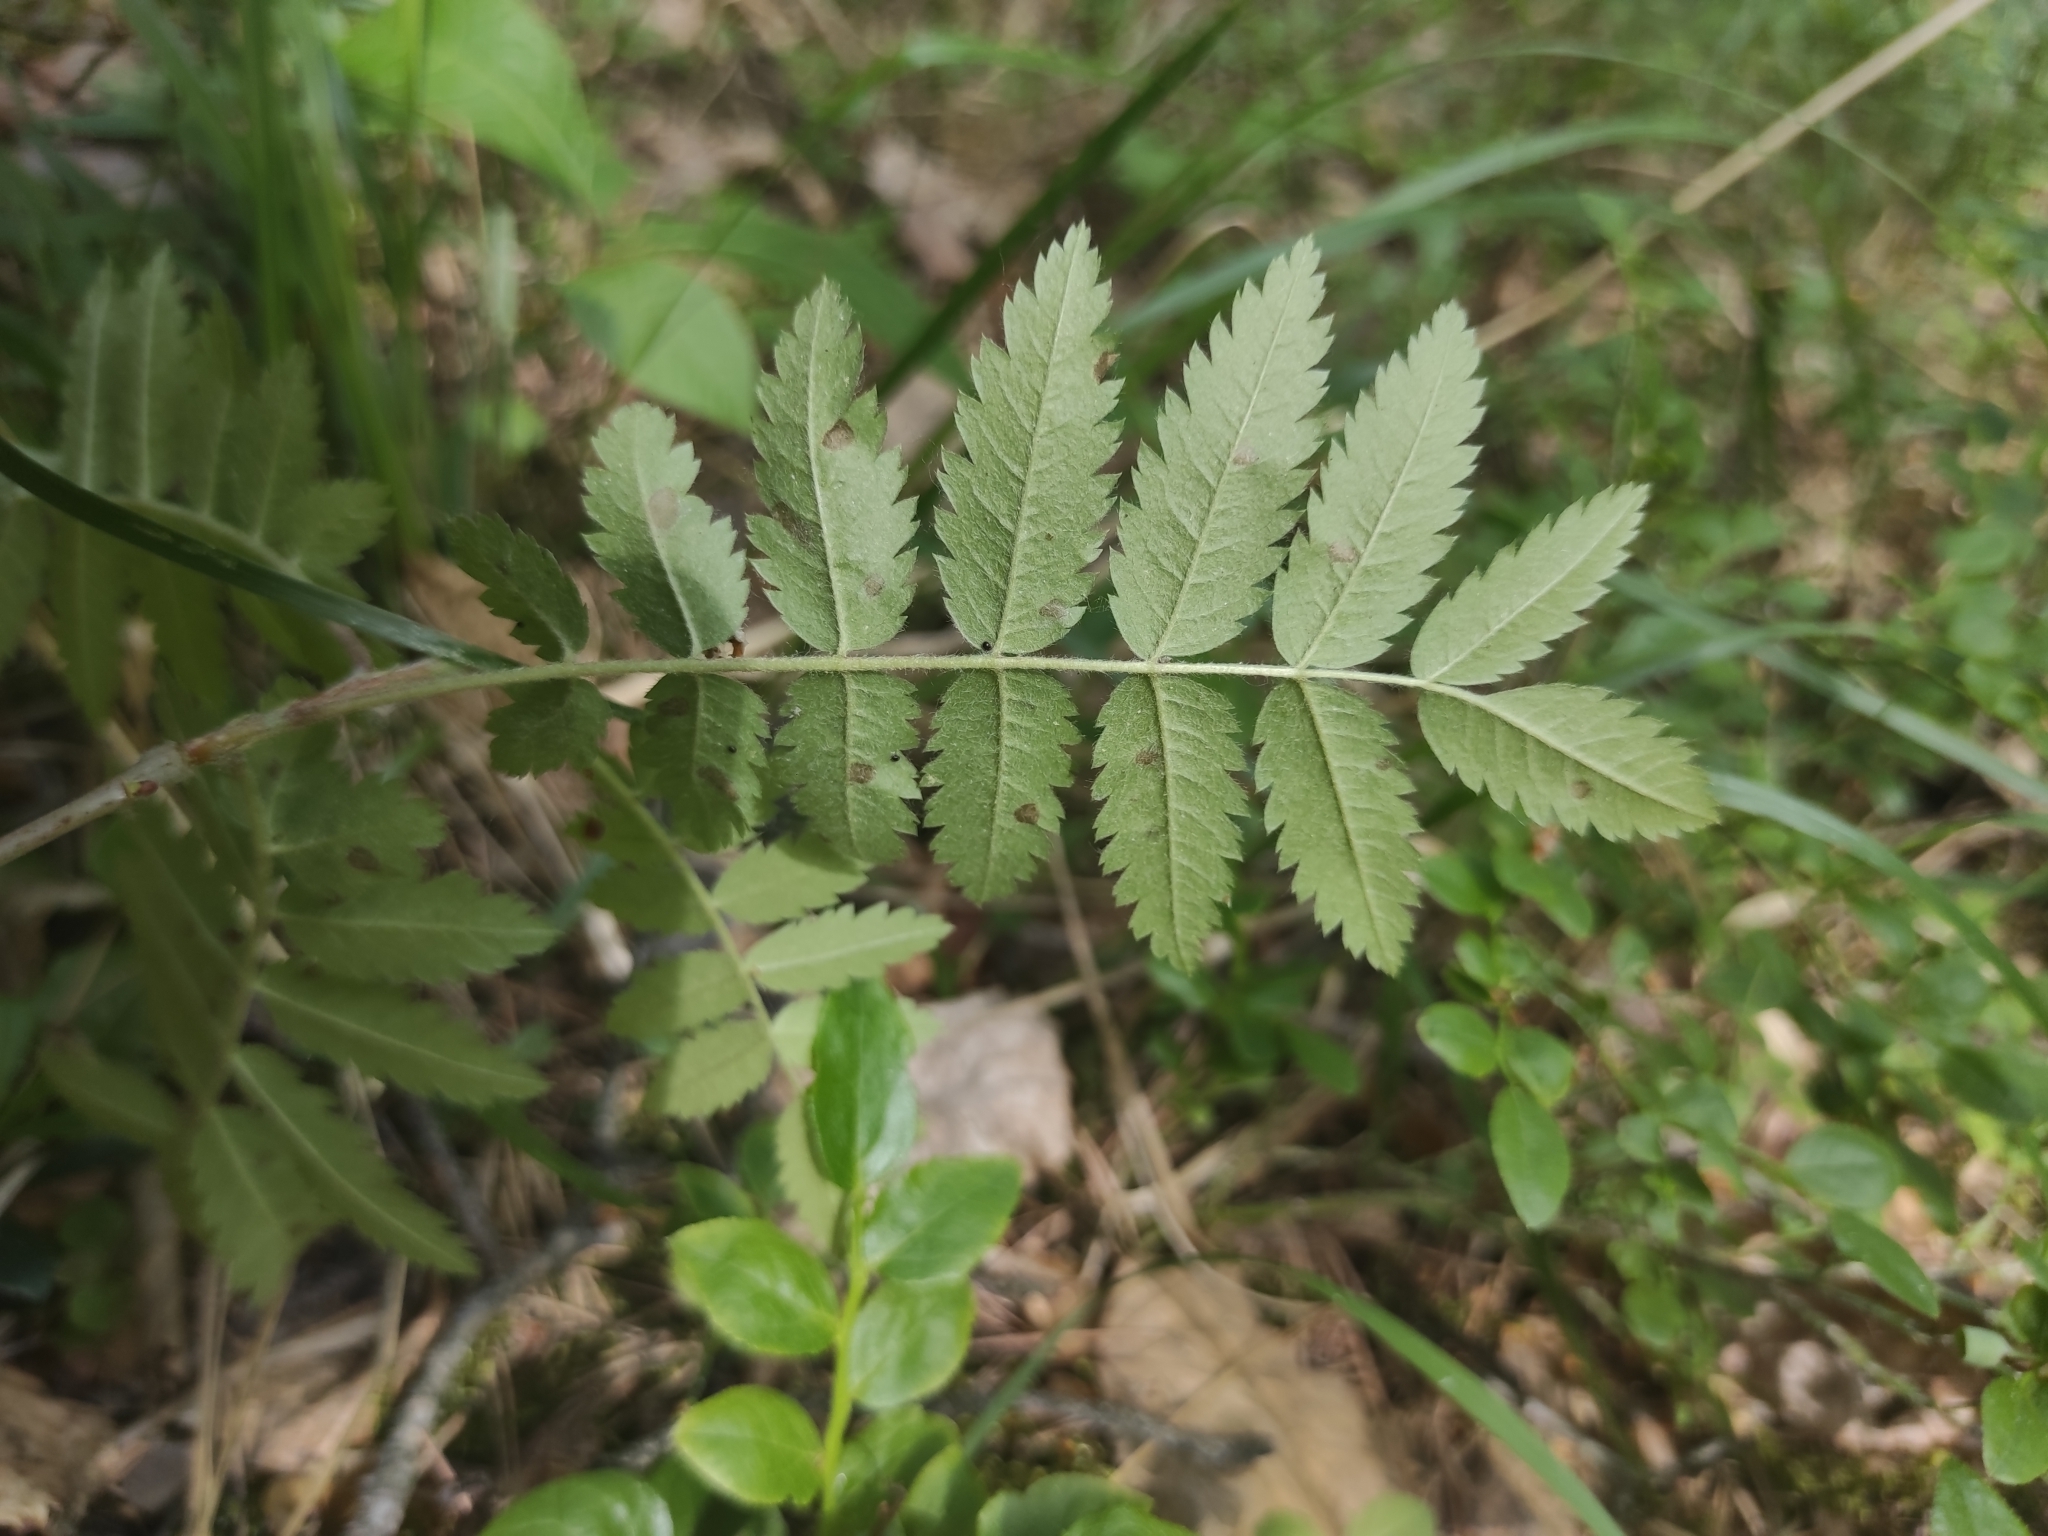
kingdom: Plantae
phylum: Tracheophyta
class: Magnoliopsida
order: Rosales
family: Rosaceae
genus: Sorbus
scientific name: Sorbus aucuparia
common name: Rowan
